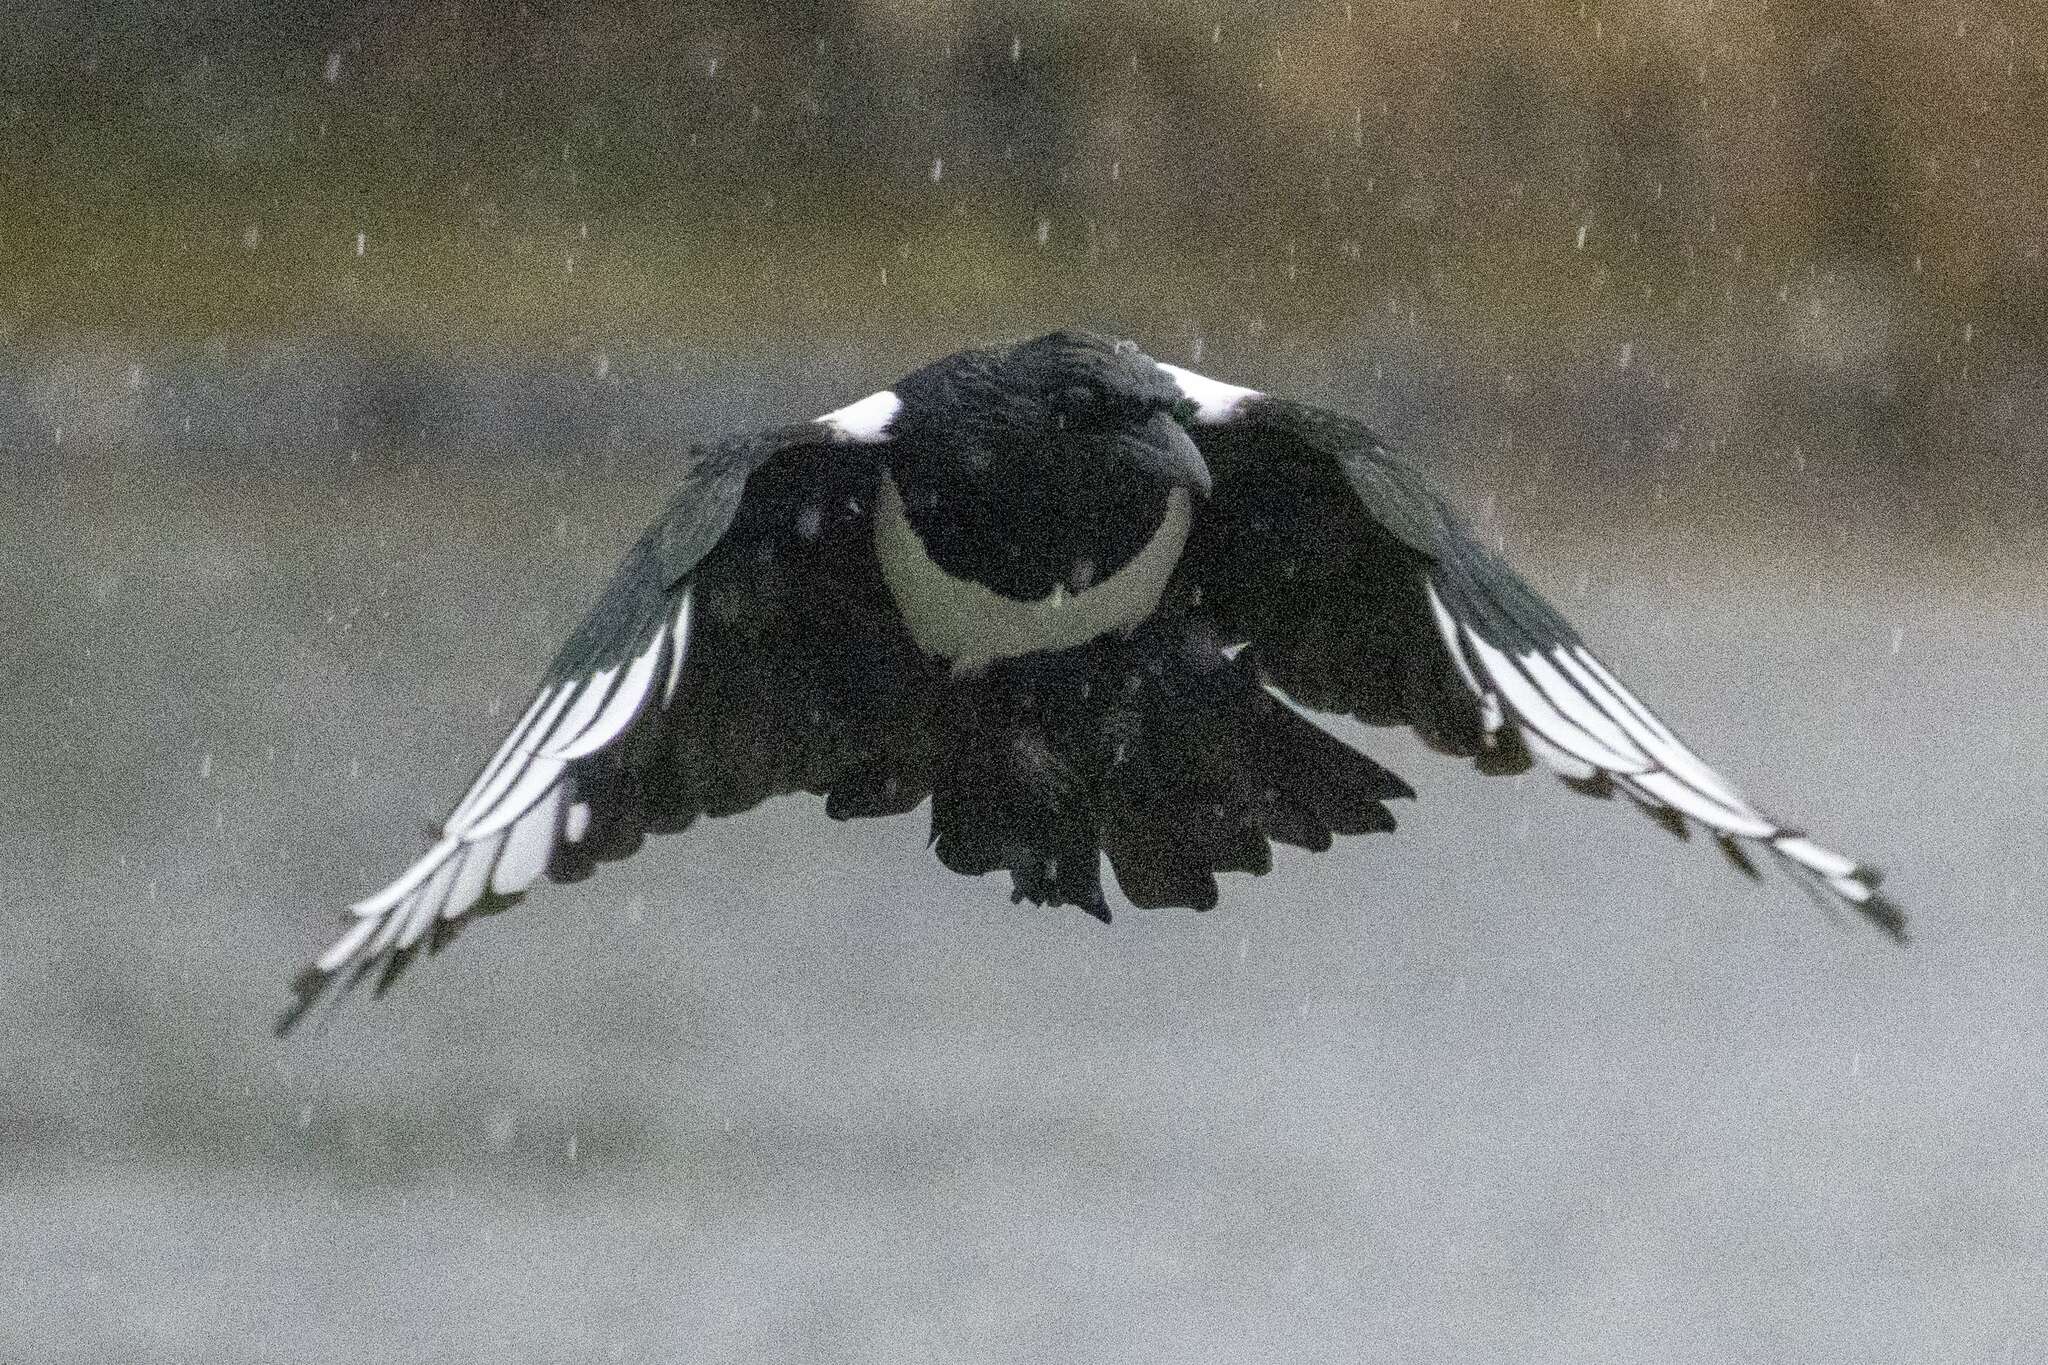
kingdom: Animalia
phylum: Chordata
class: Aves
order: Passeriformes
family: Corvidae
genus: Pica
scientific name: Pica pica
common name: Eurasian magpie
